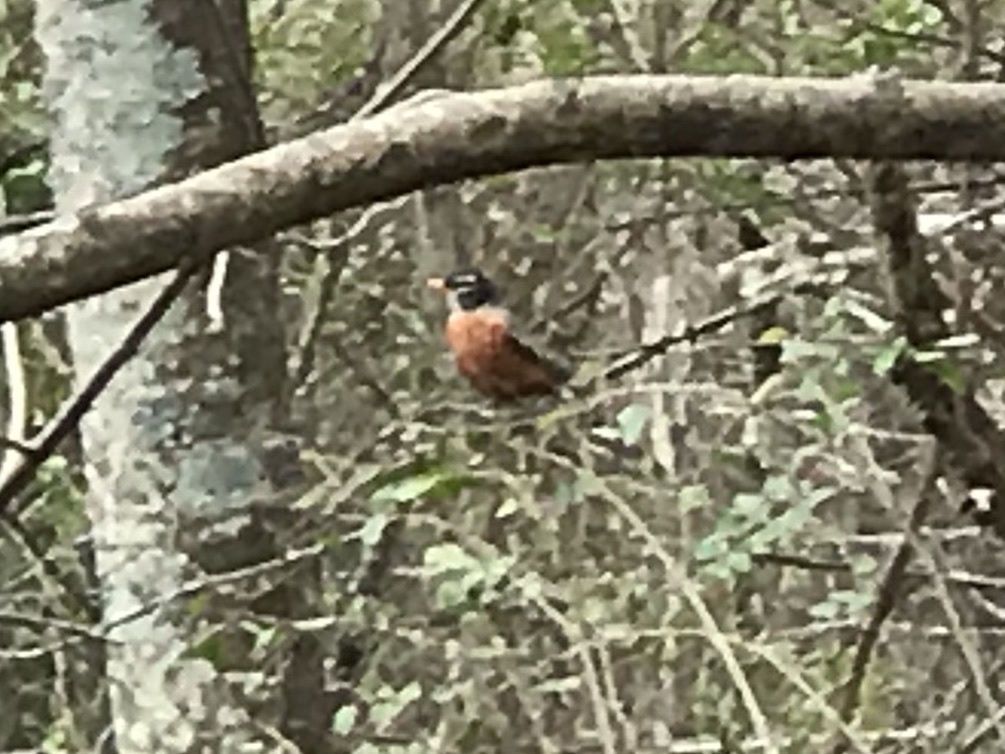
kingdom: Animalia
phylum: Chordata
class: Aves
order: Passeriformes
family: Turdidae
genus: Turdus
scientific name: Turdus migratorius
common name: American robin
